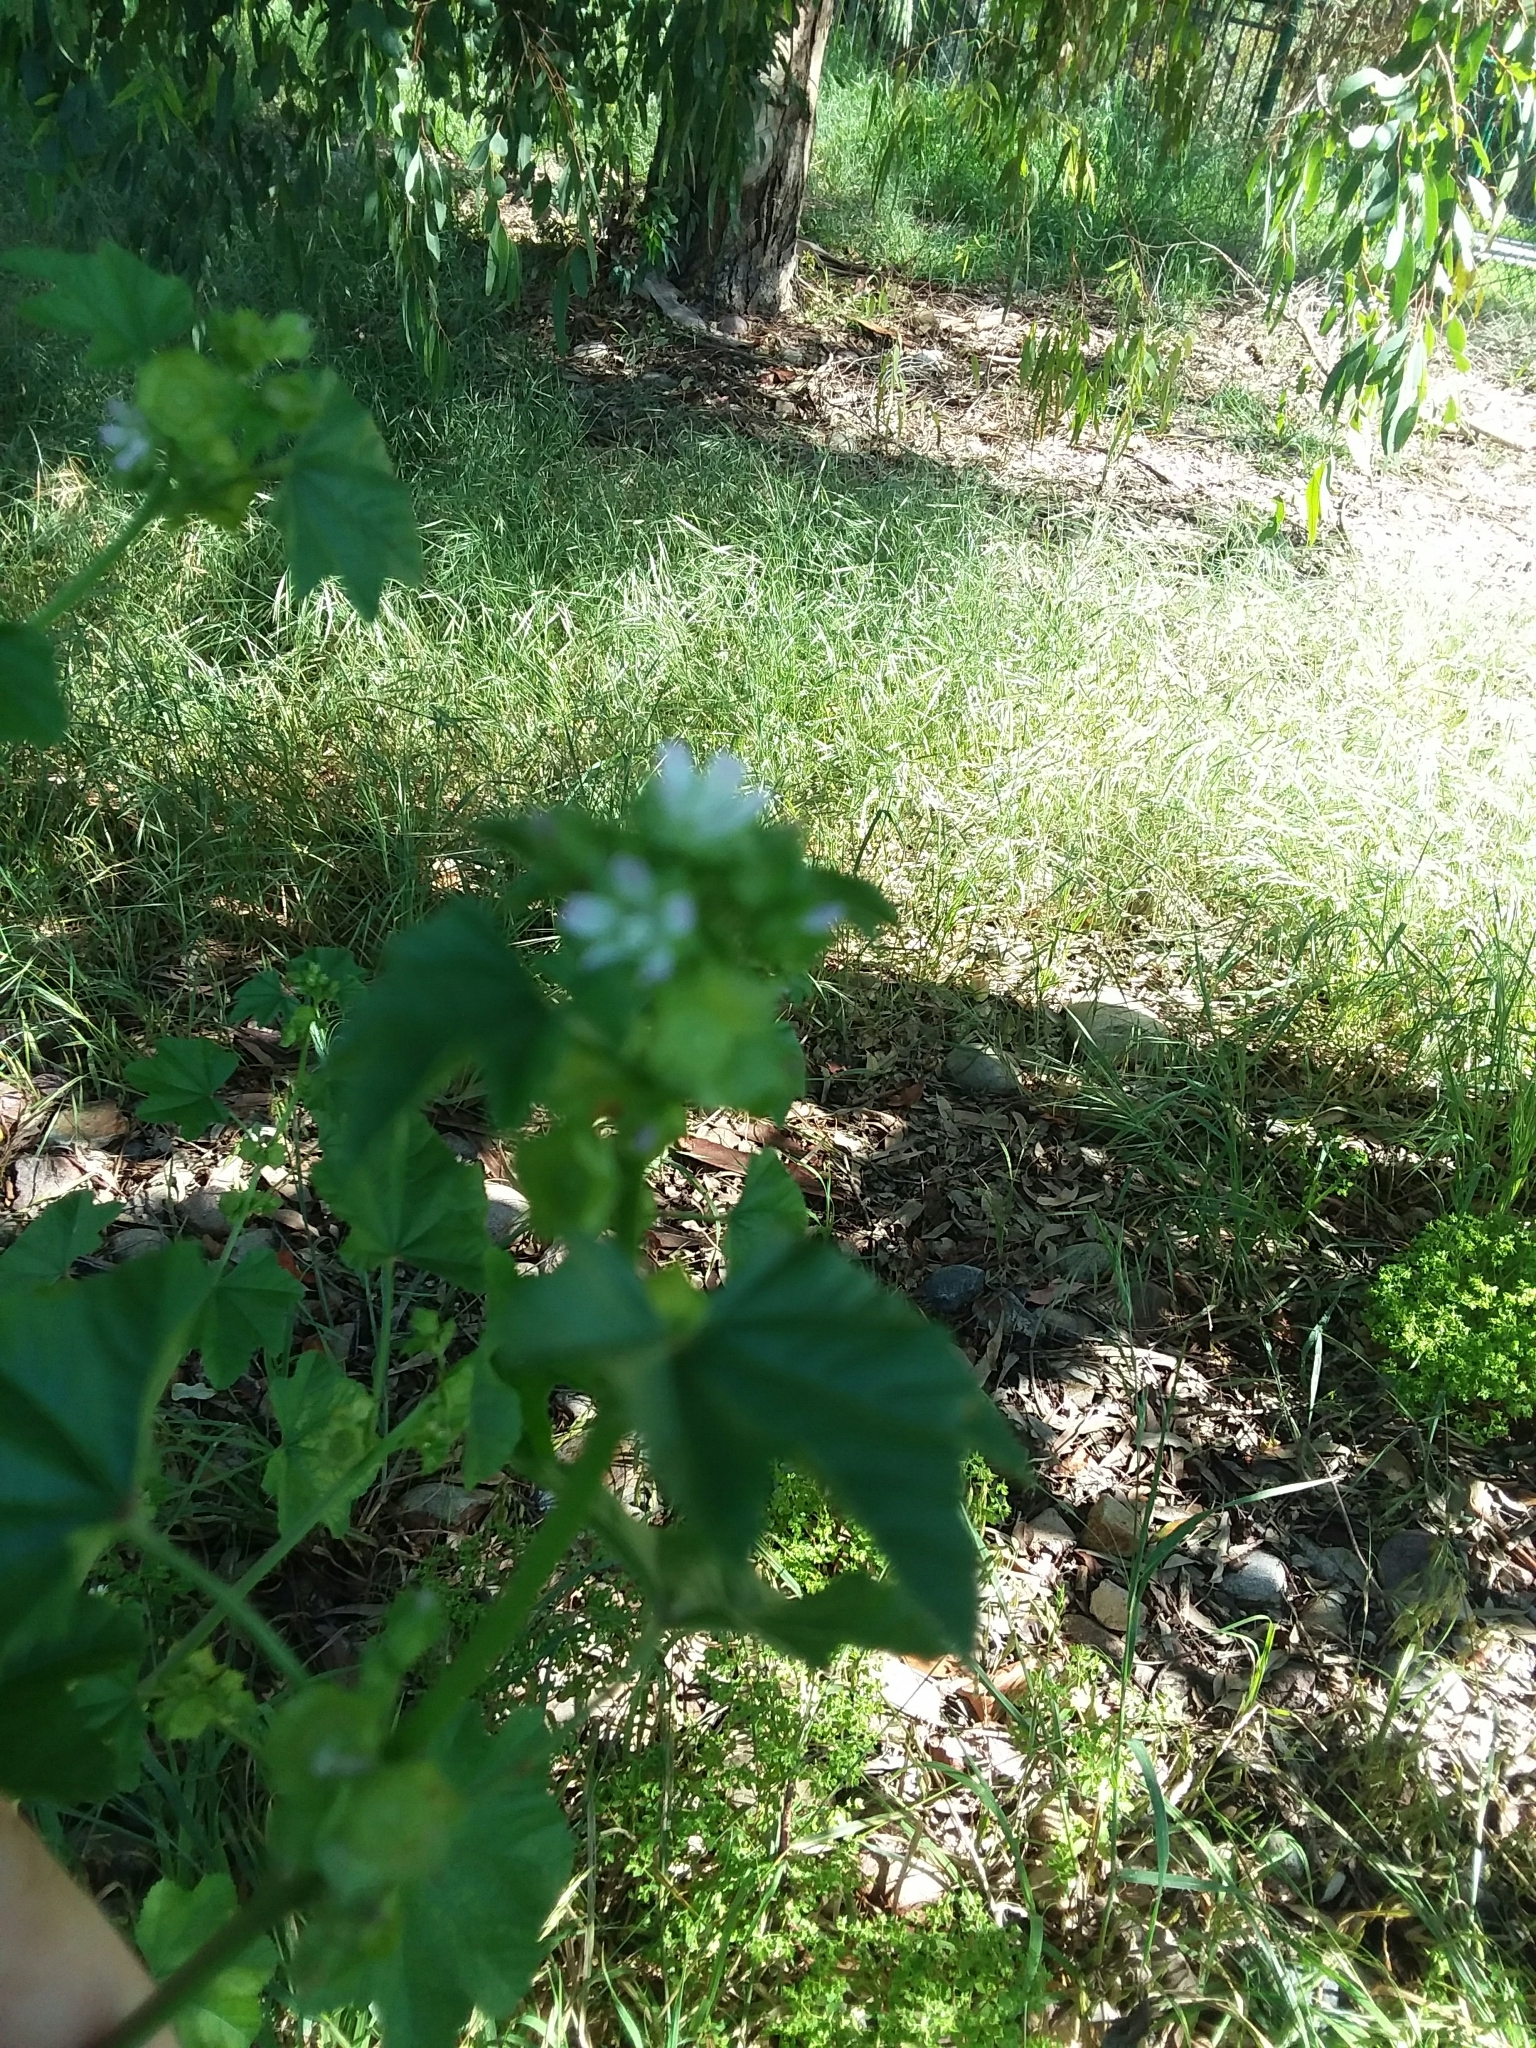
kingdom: Plantae
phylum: Tracheophyta
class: Magnoliopsida
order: Malvales
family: Malvaceae
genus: Malva
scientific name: Malva parviflora
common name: Least mallow
